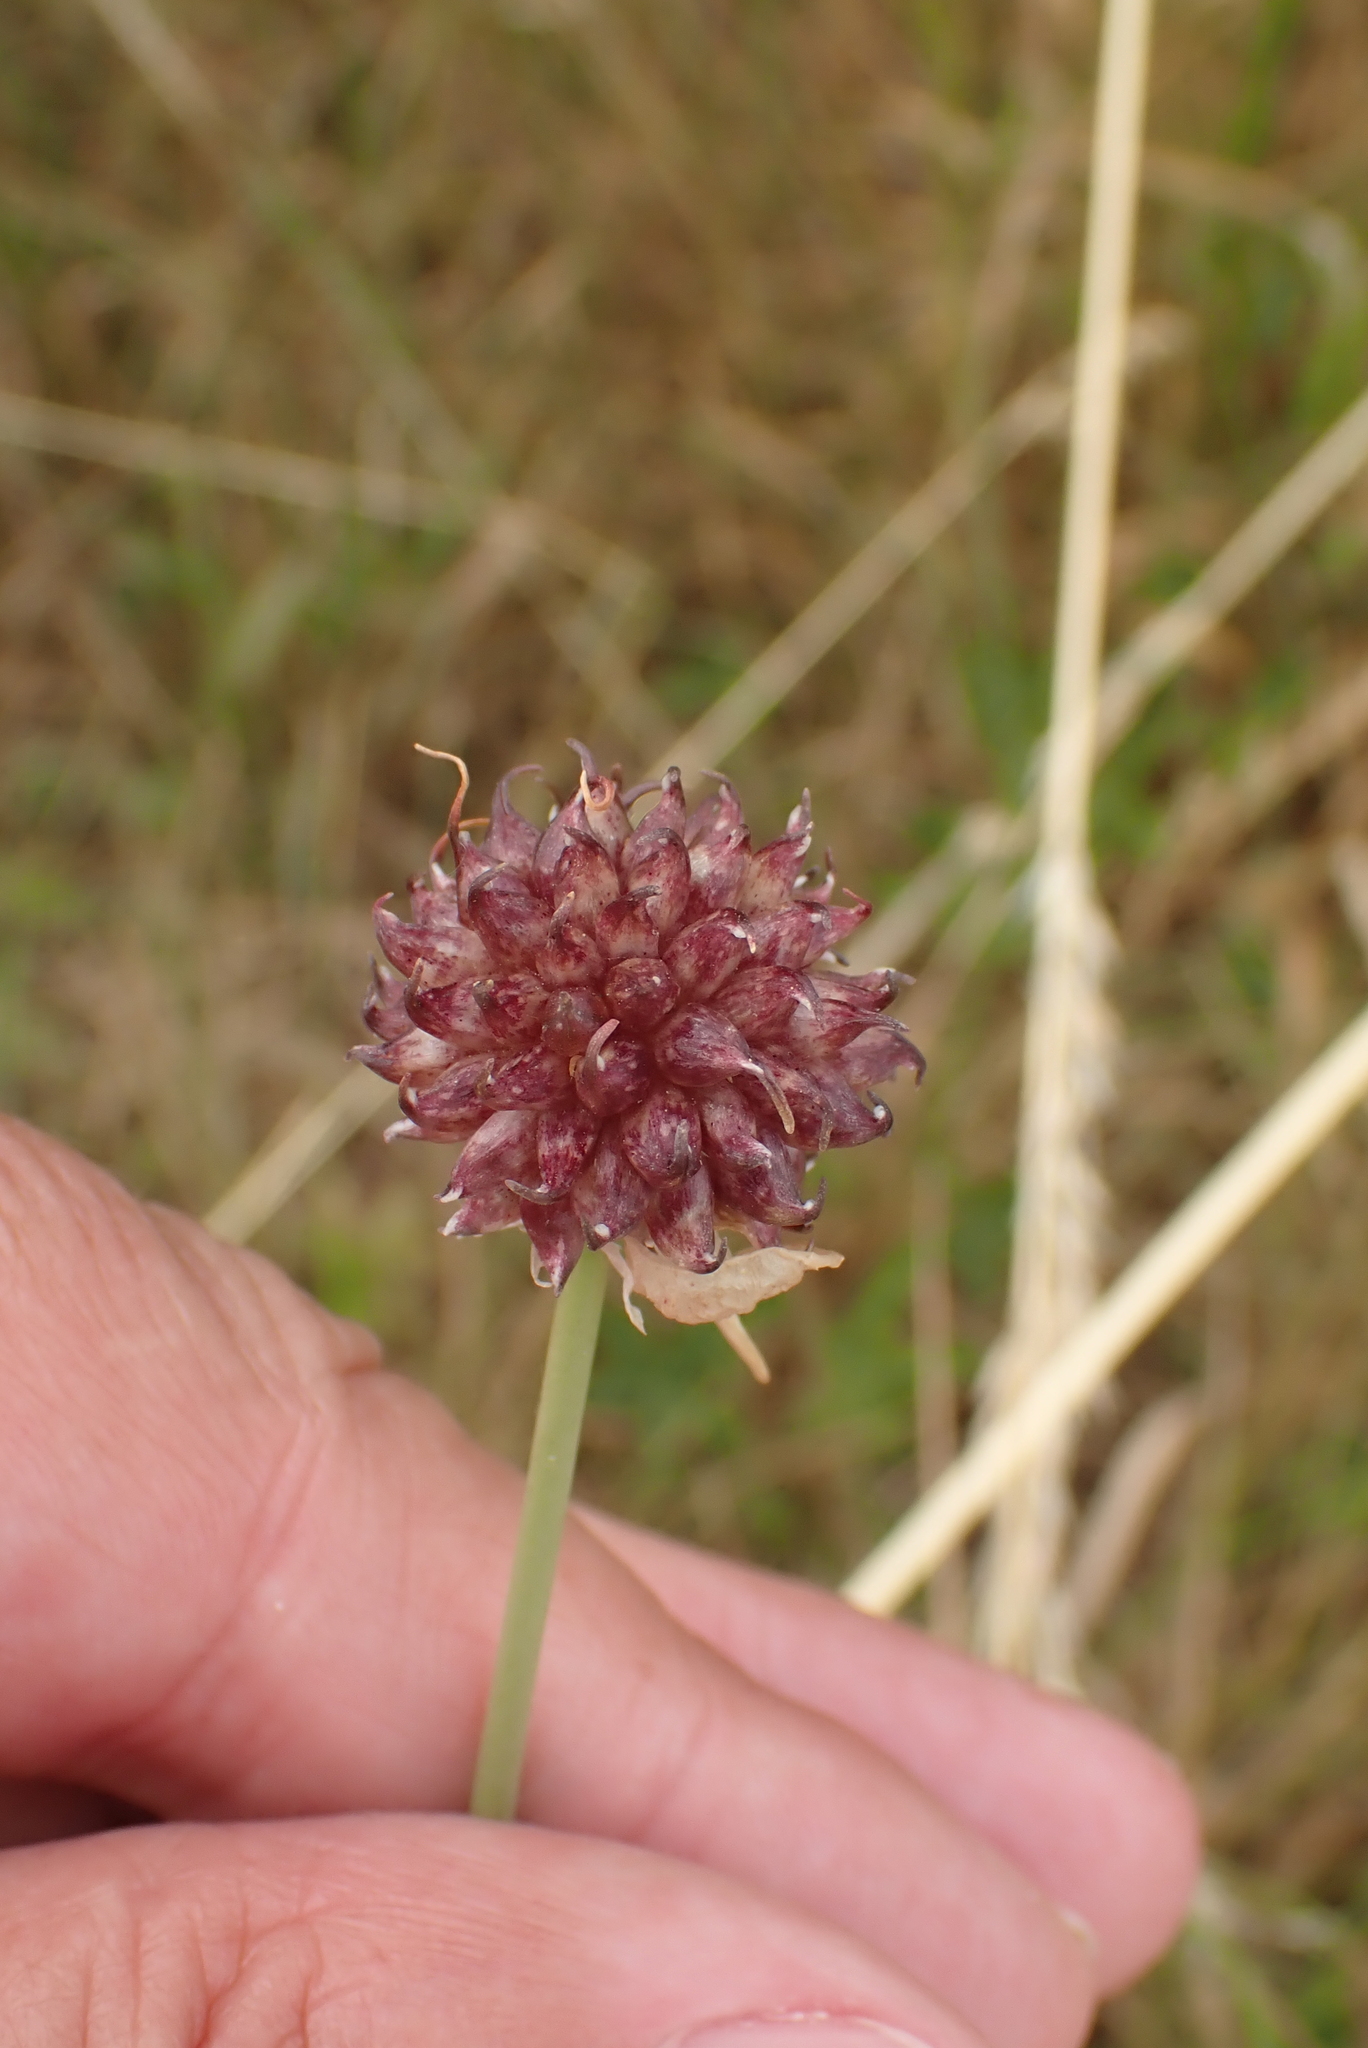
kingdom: Plantae
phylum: Tracheophyta
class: Liliopsida
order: Asparagales
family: Amaryllidaceae
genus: Allium
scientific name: Allium vineale
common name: Crow garlic
